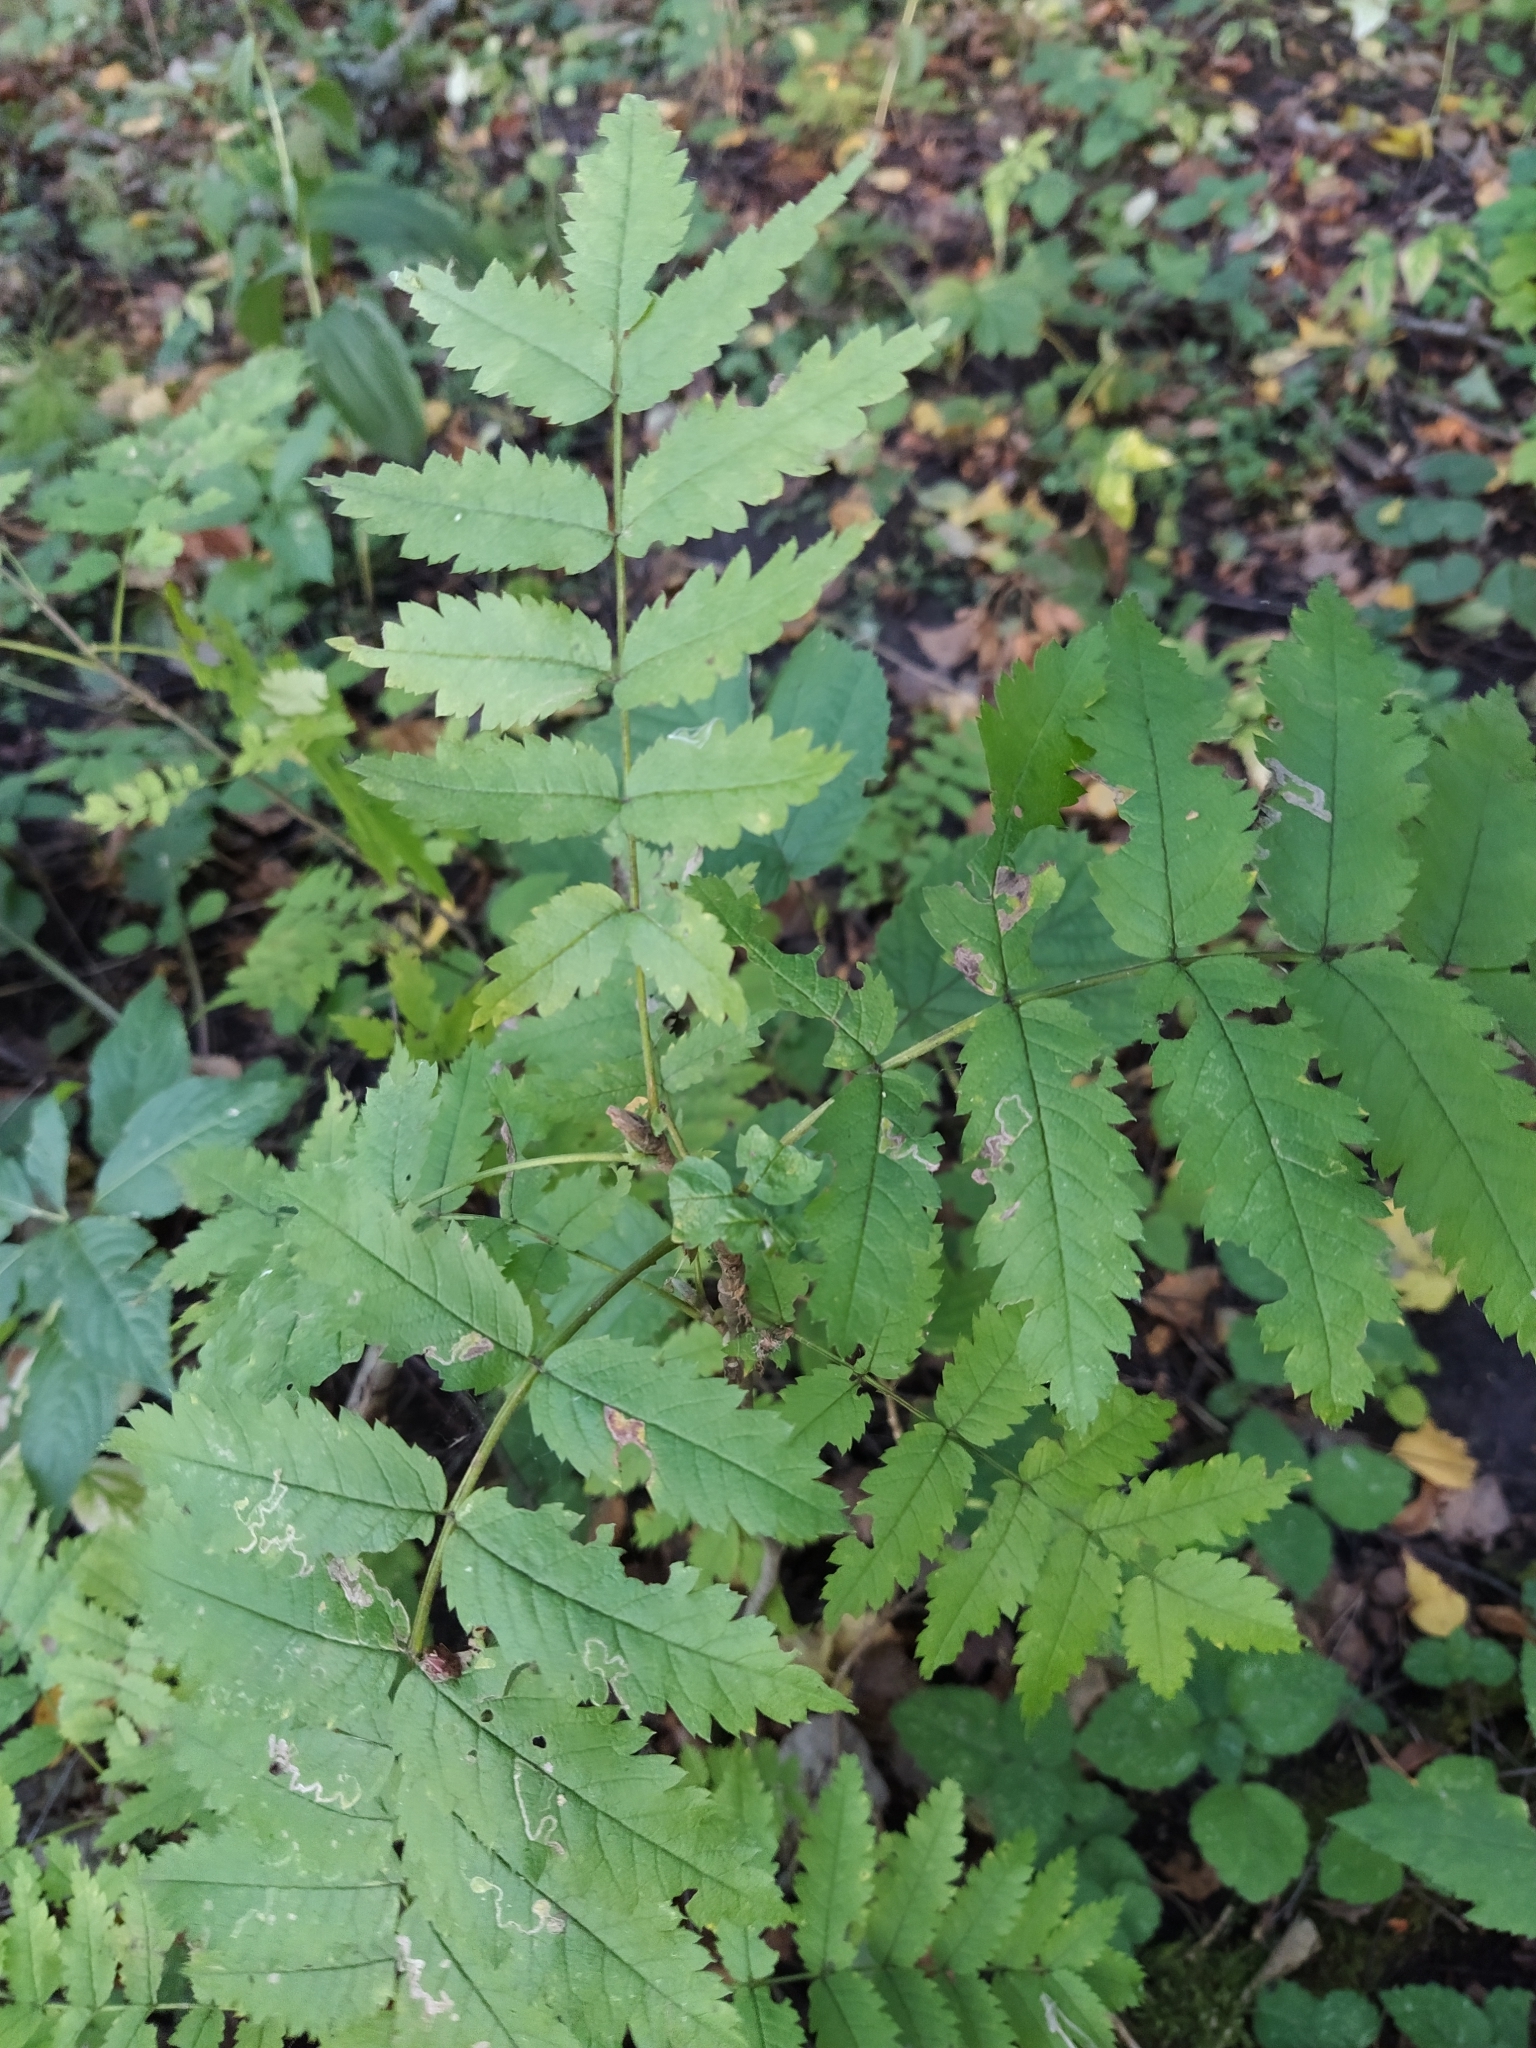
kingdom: Plantae
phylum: Tracheophyta
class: Magnoliopsida
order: Rosales
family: Rosaceae
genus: Sorbus
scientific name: Sorbus aucuparia
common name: Rowan
